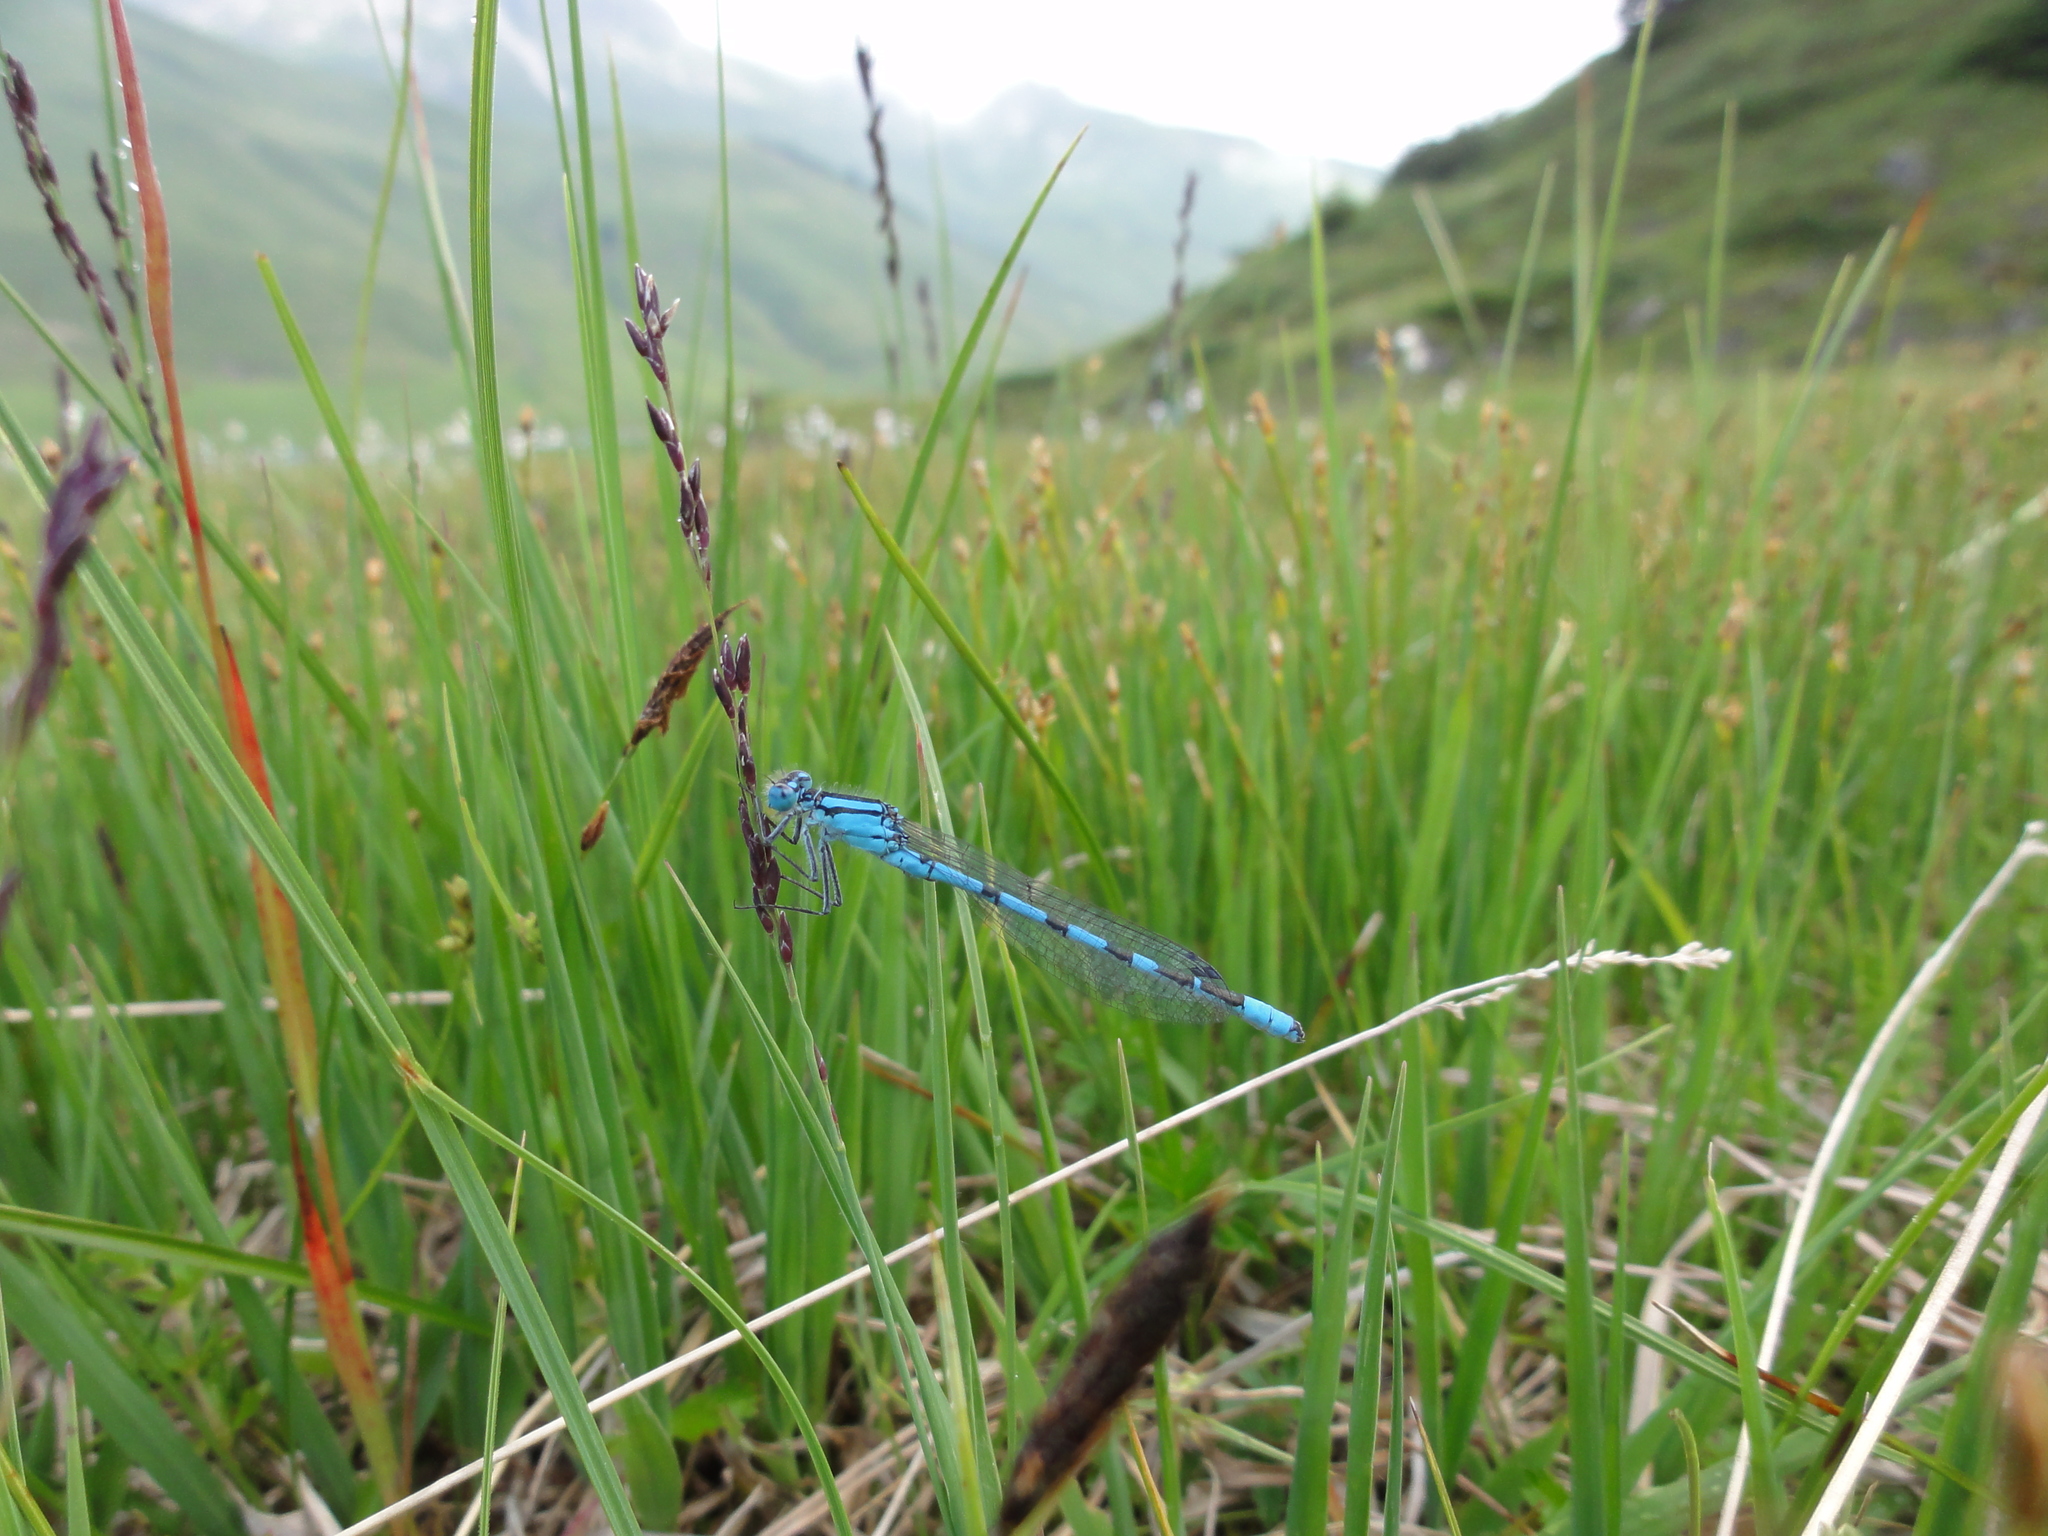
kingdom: Animalia
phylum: Arthropoda
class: Insecta
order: Odonata
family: Coenagrionidae
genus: Enallagma
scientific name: Enallagma cyathigerum
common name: Common blue damselfly
